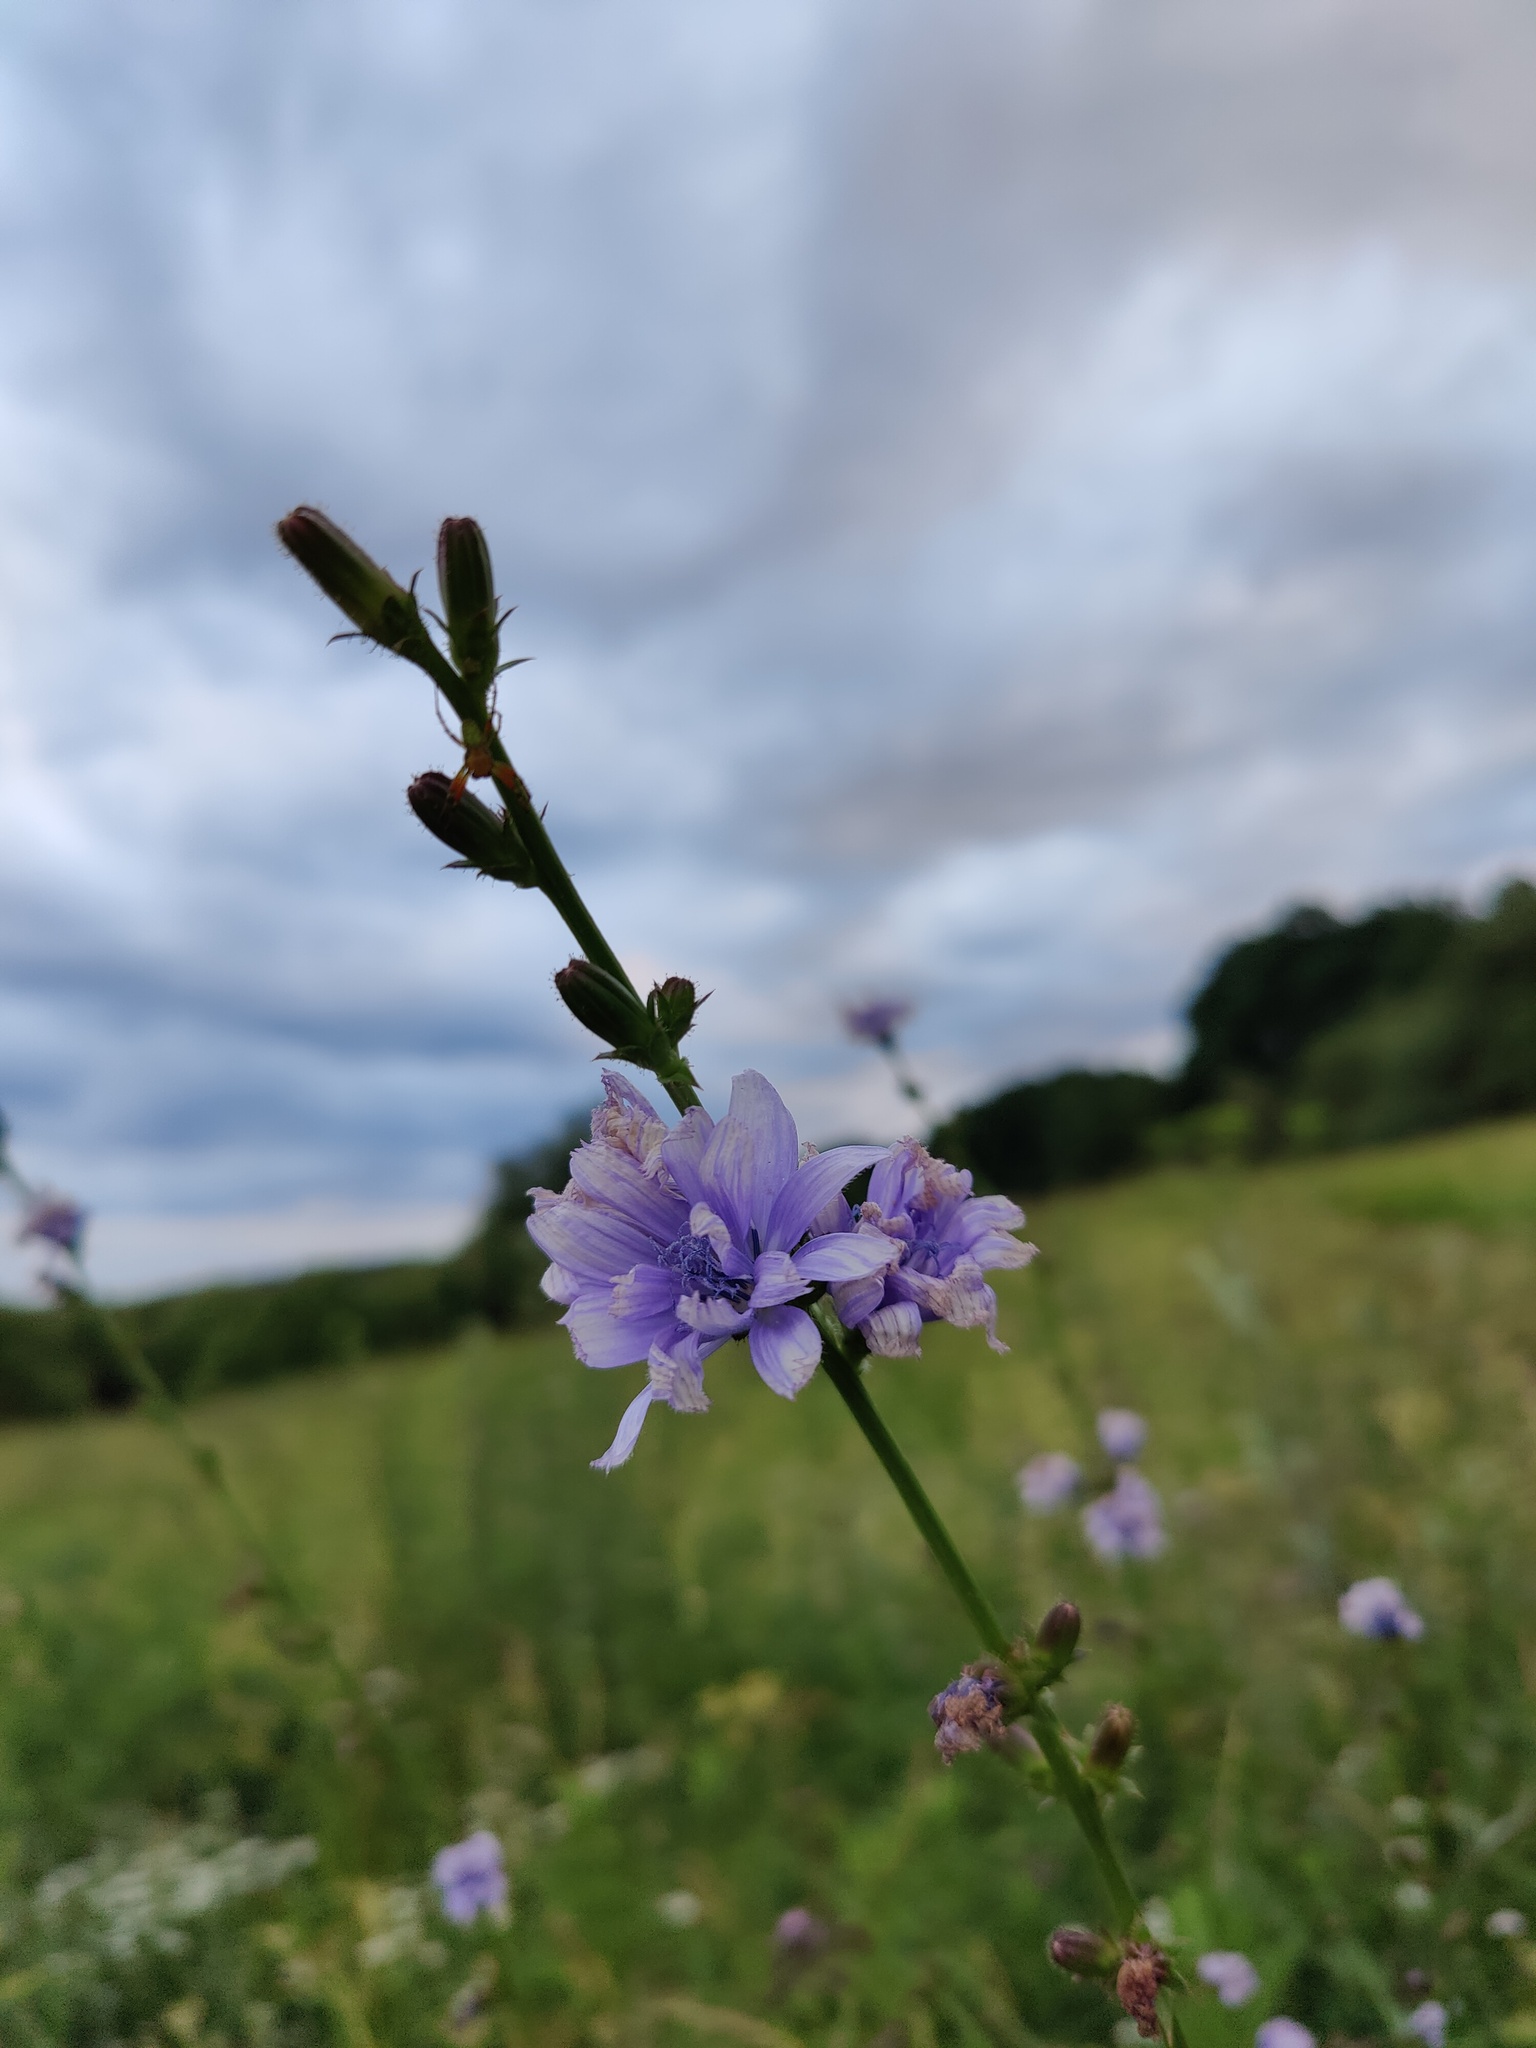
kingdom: Plantae
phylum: Tracheophyta
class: Magnoliopsida
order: Asterales
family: Asteraceae
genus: Cichorium
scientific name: Cichorium intybus
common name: Chicory
